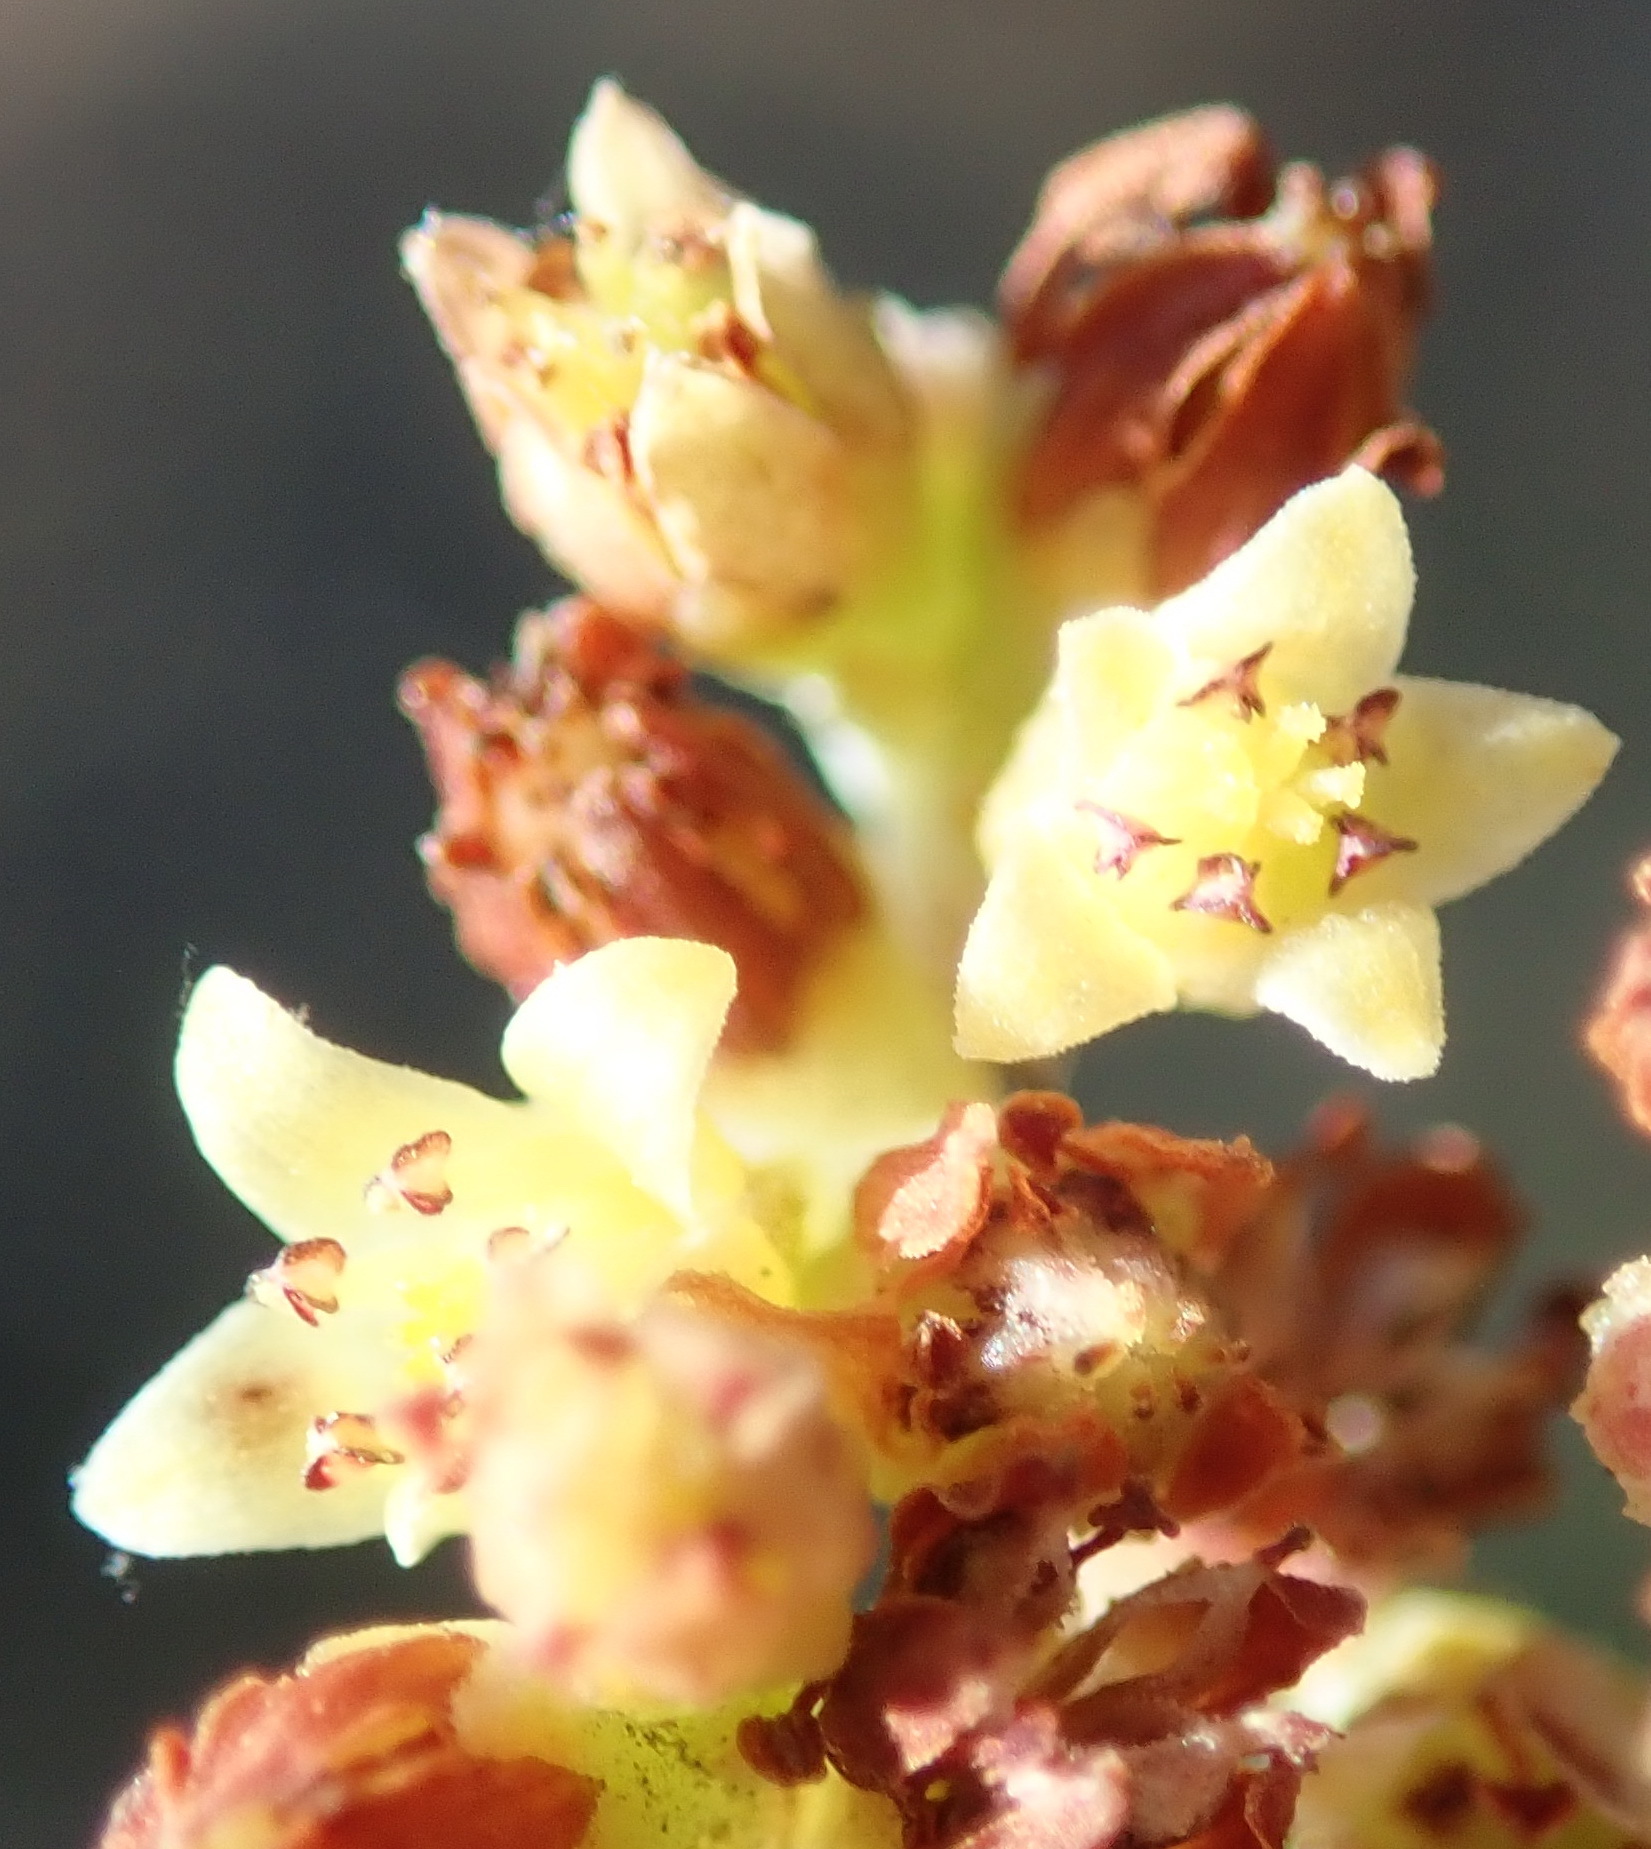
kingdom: Plantae
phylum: Tracheophyta
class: Magnoliopsida
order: Saxifragales
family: Crassulaceae
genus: Crassula
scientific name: Crassula perforata
